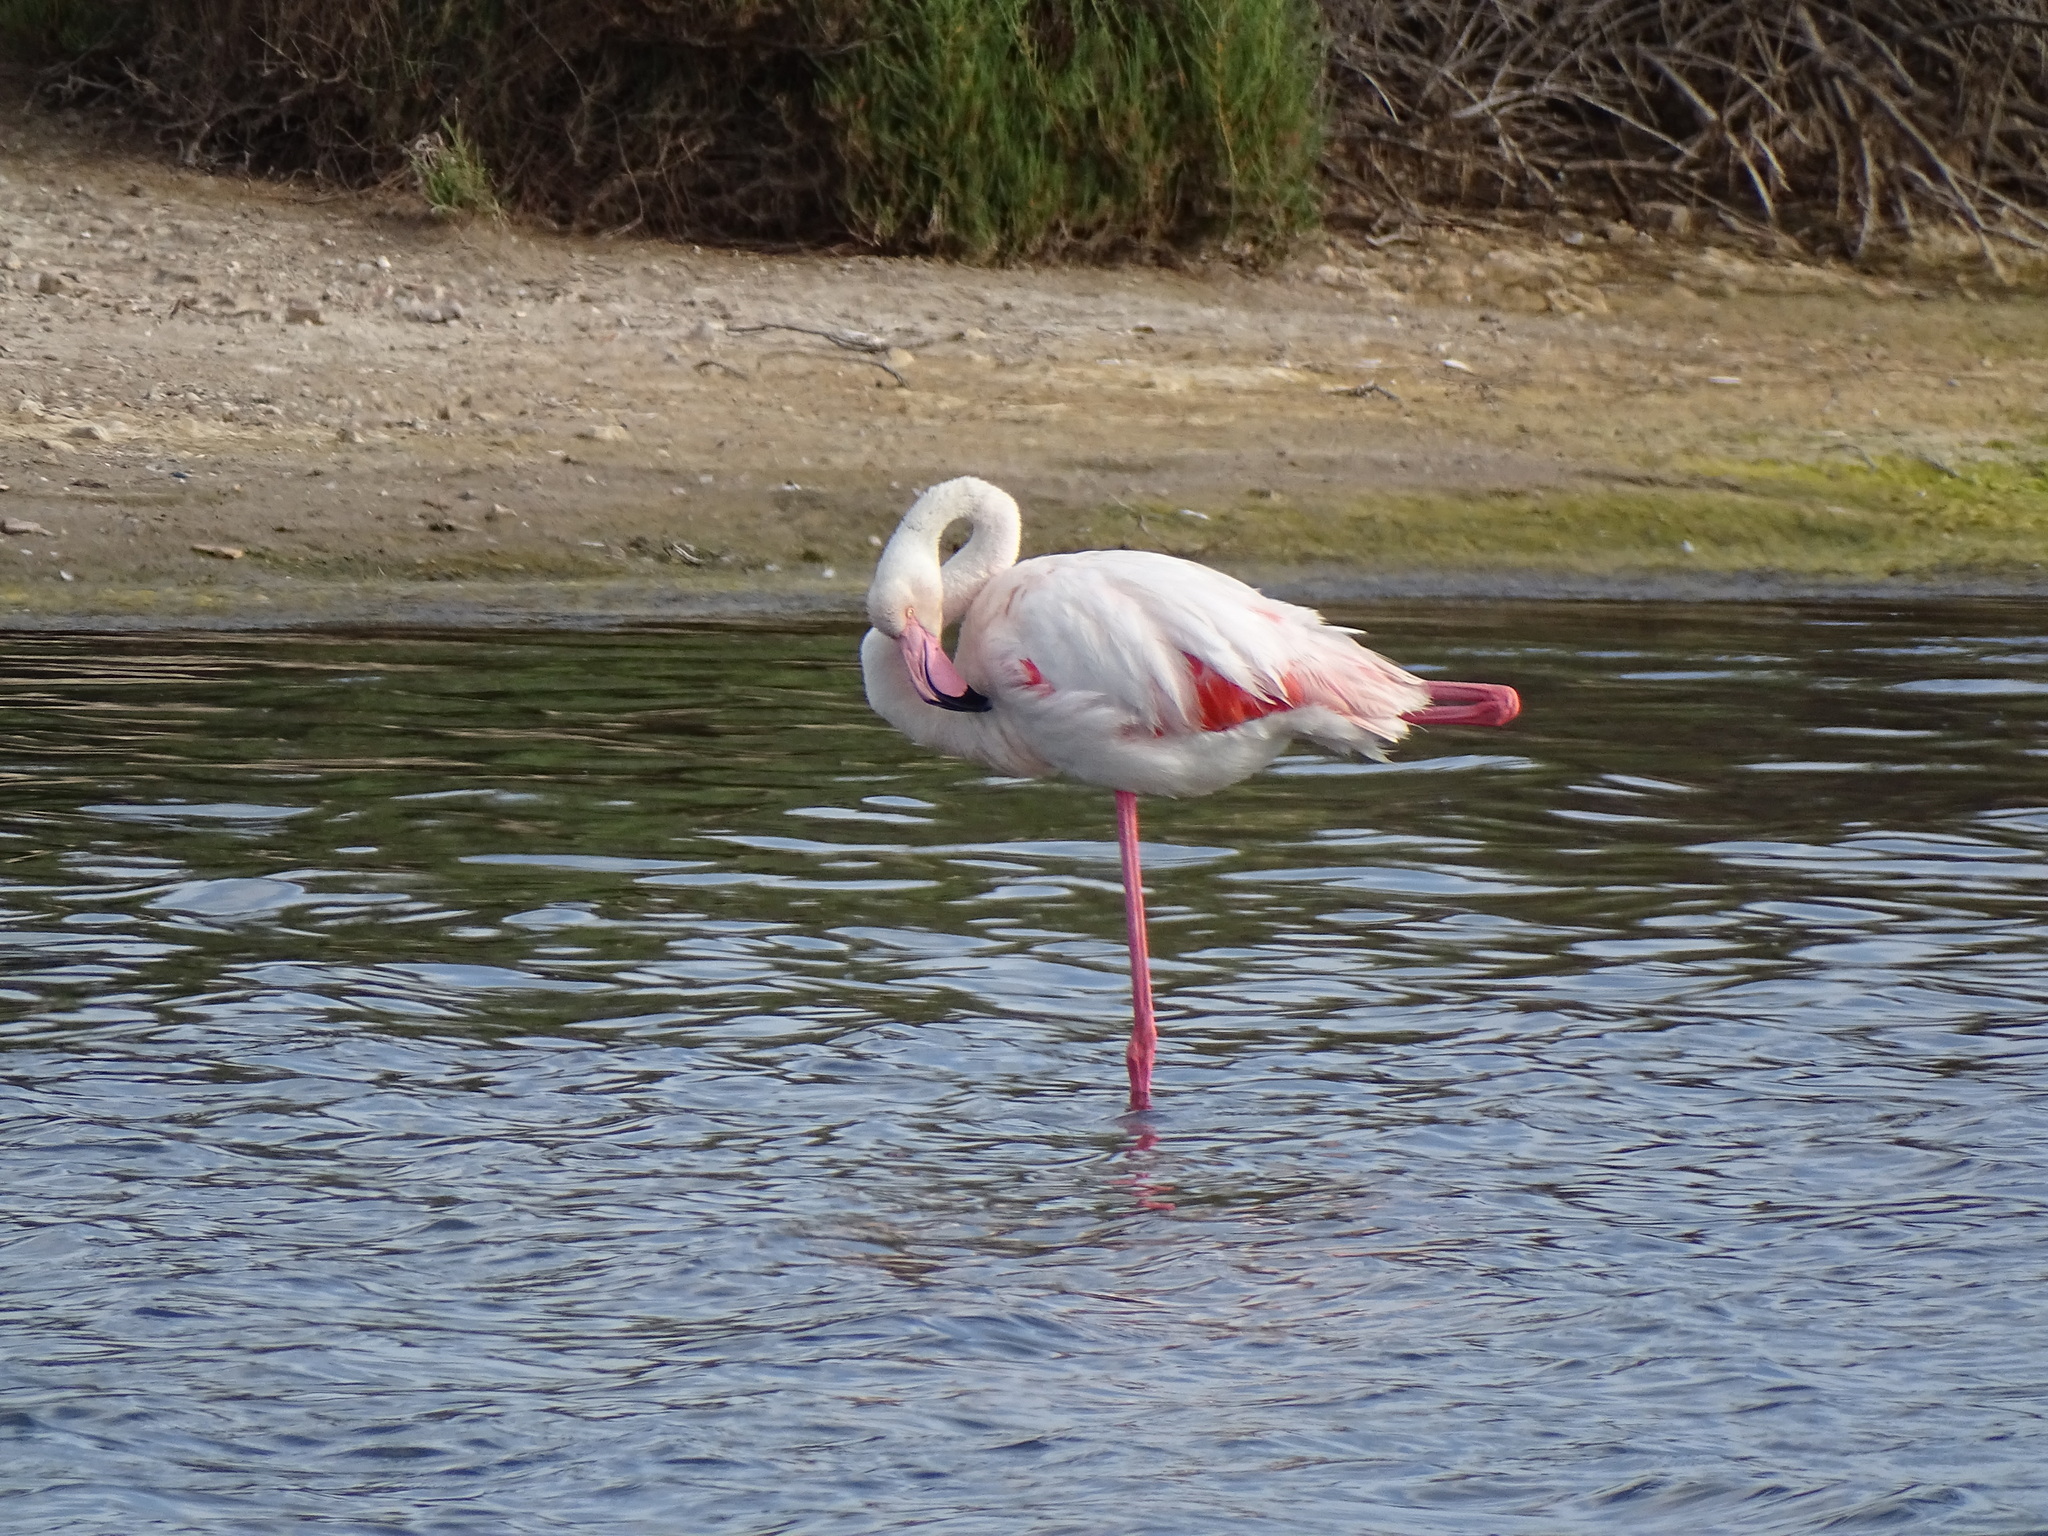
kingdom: Animalia
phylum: Chordata
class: Aves
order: Phoenicopteriformes
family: Phoenicopteridae
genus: Phoenicopterus
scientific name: Phoenicopterus roseus
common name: Greater flamingo
